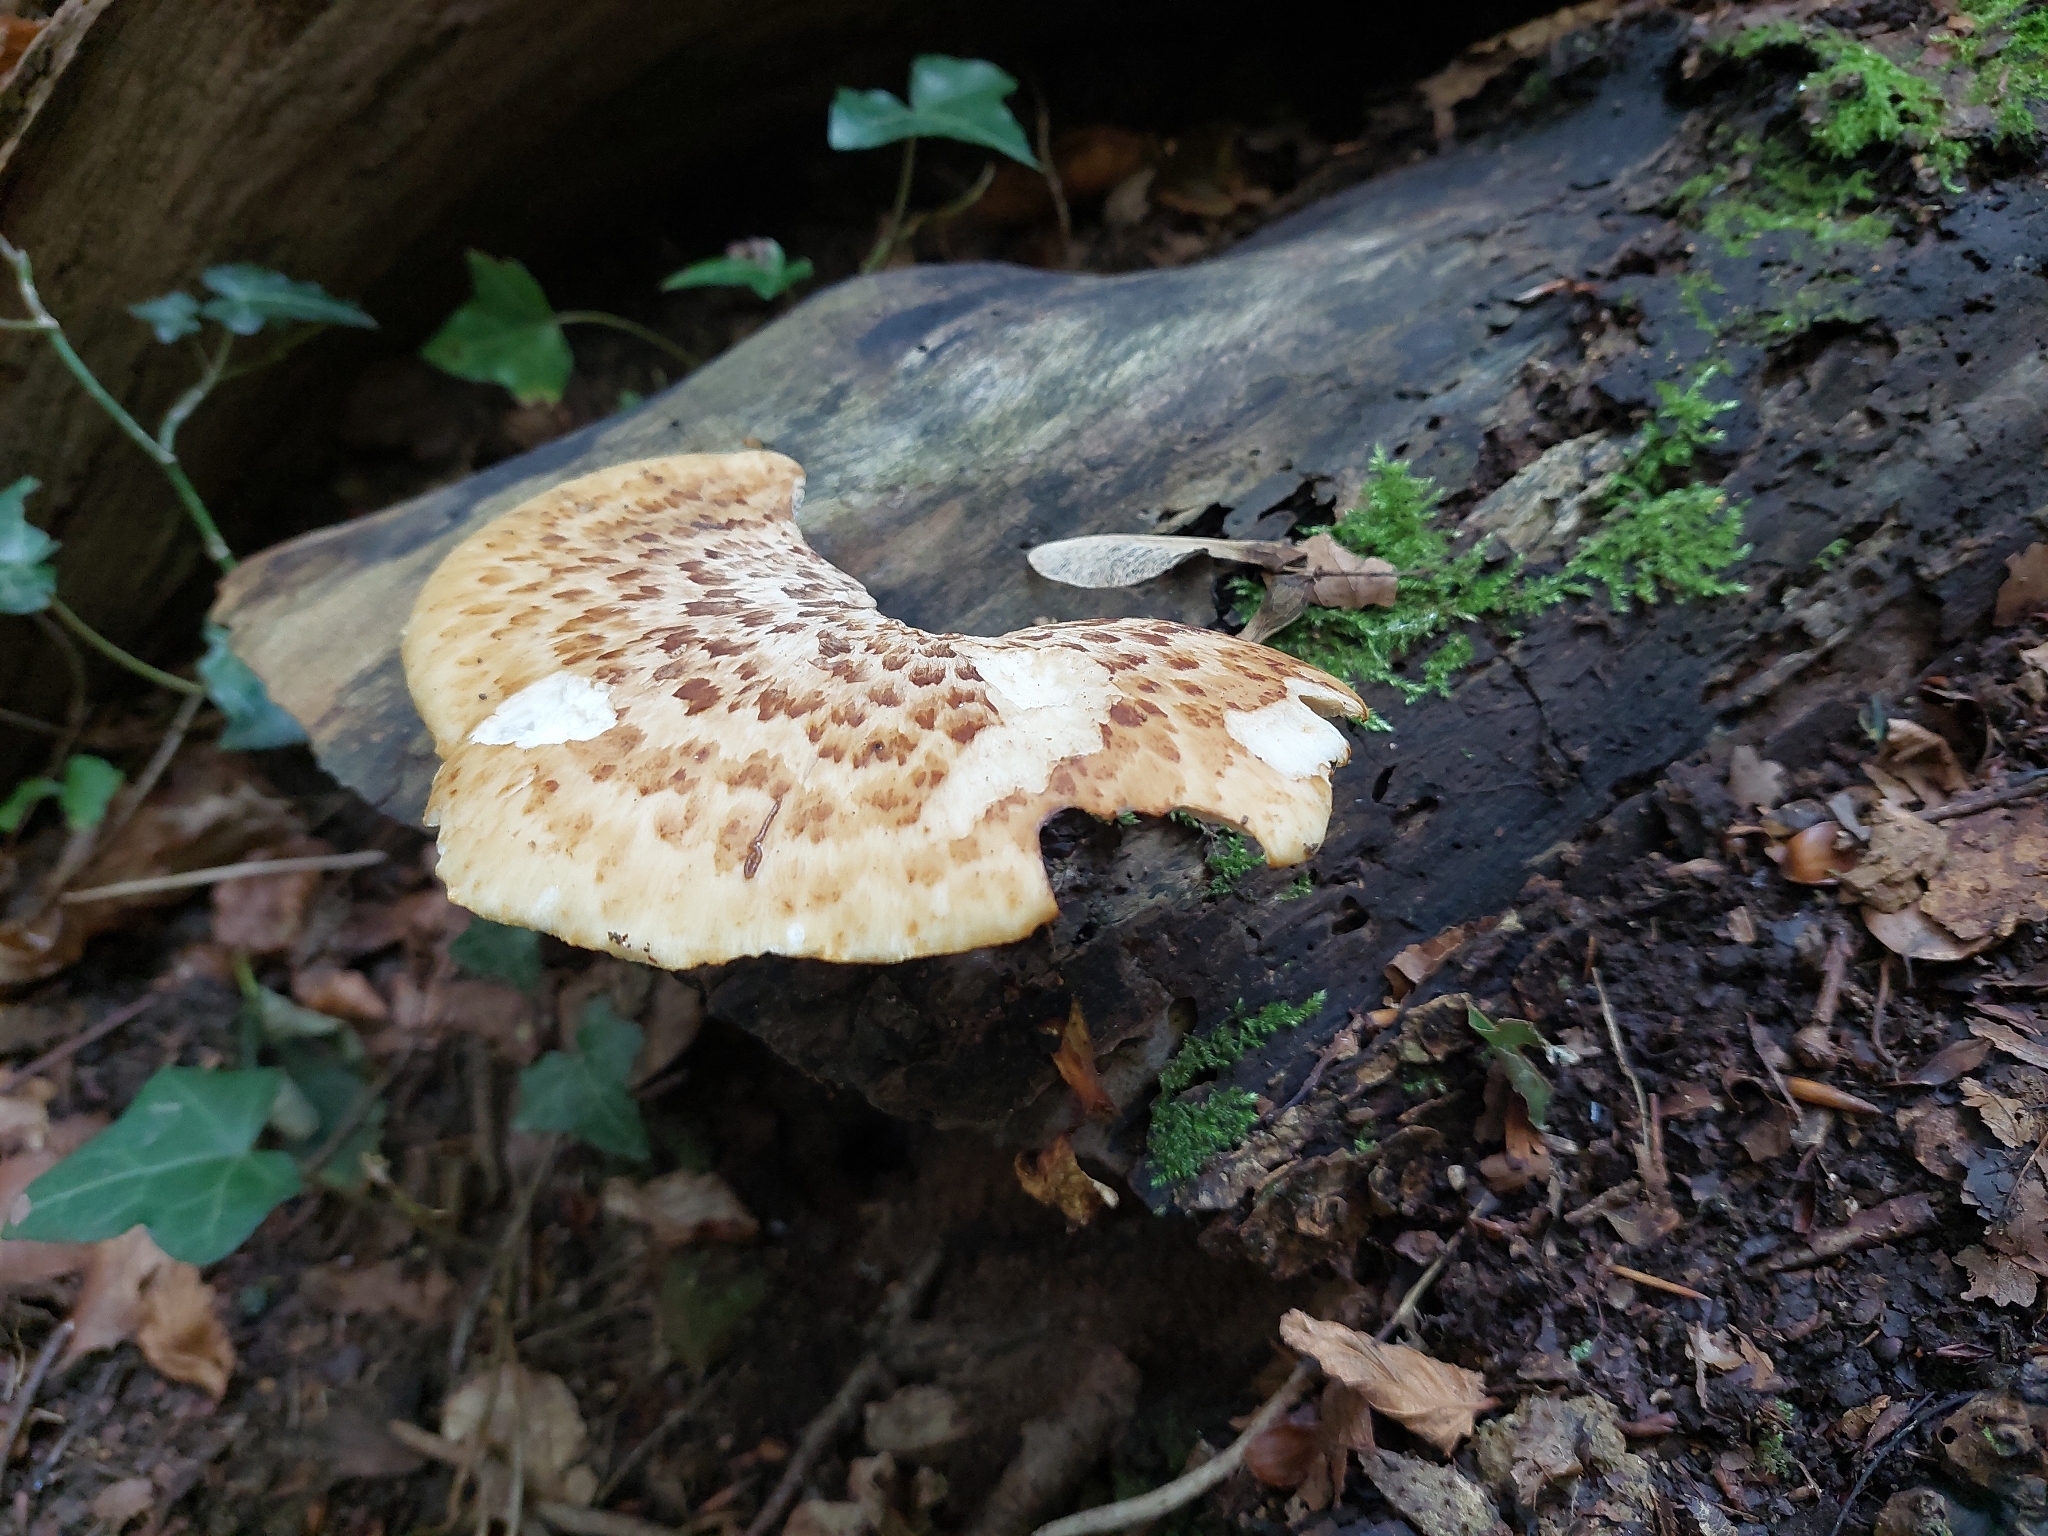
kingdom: Fungi
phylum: Basidiomycota
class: Agaricomycetes
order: Polyporales
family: Polyporaceae
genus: Cerioporus
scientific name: Cerioporus squamosus
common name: Dryad's saddle
